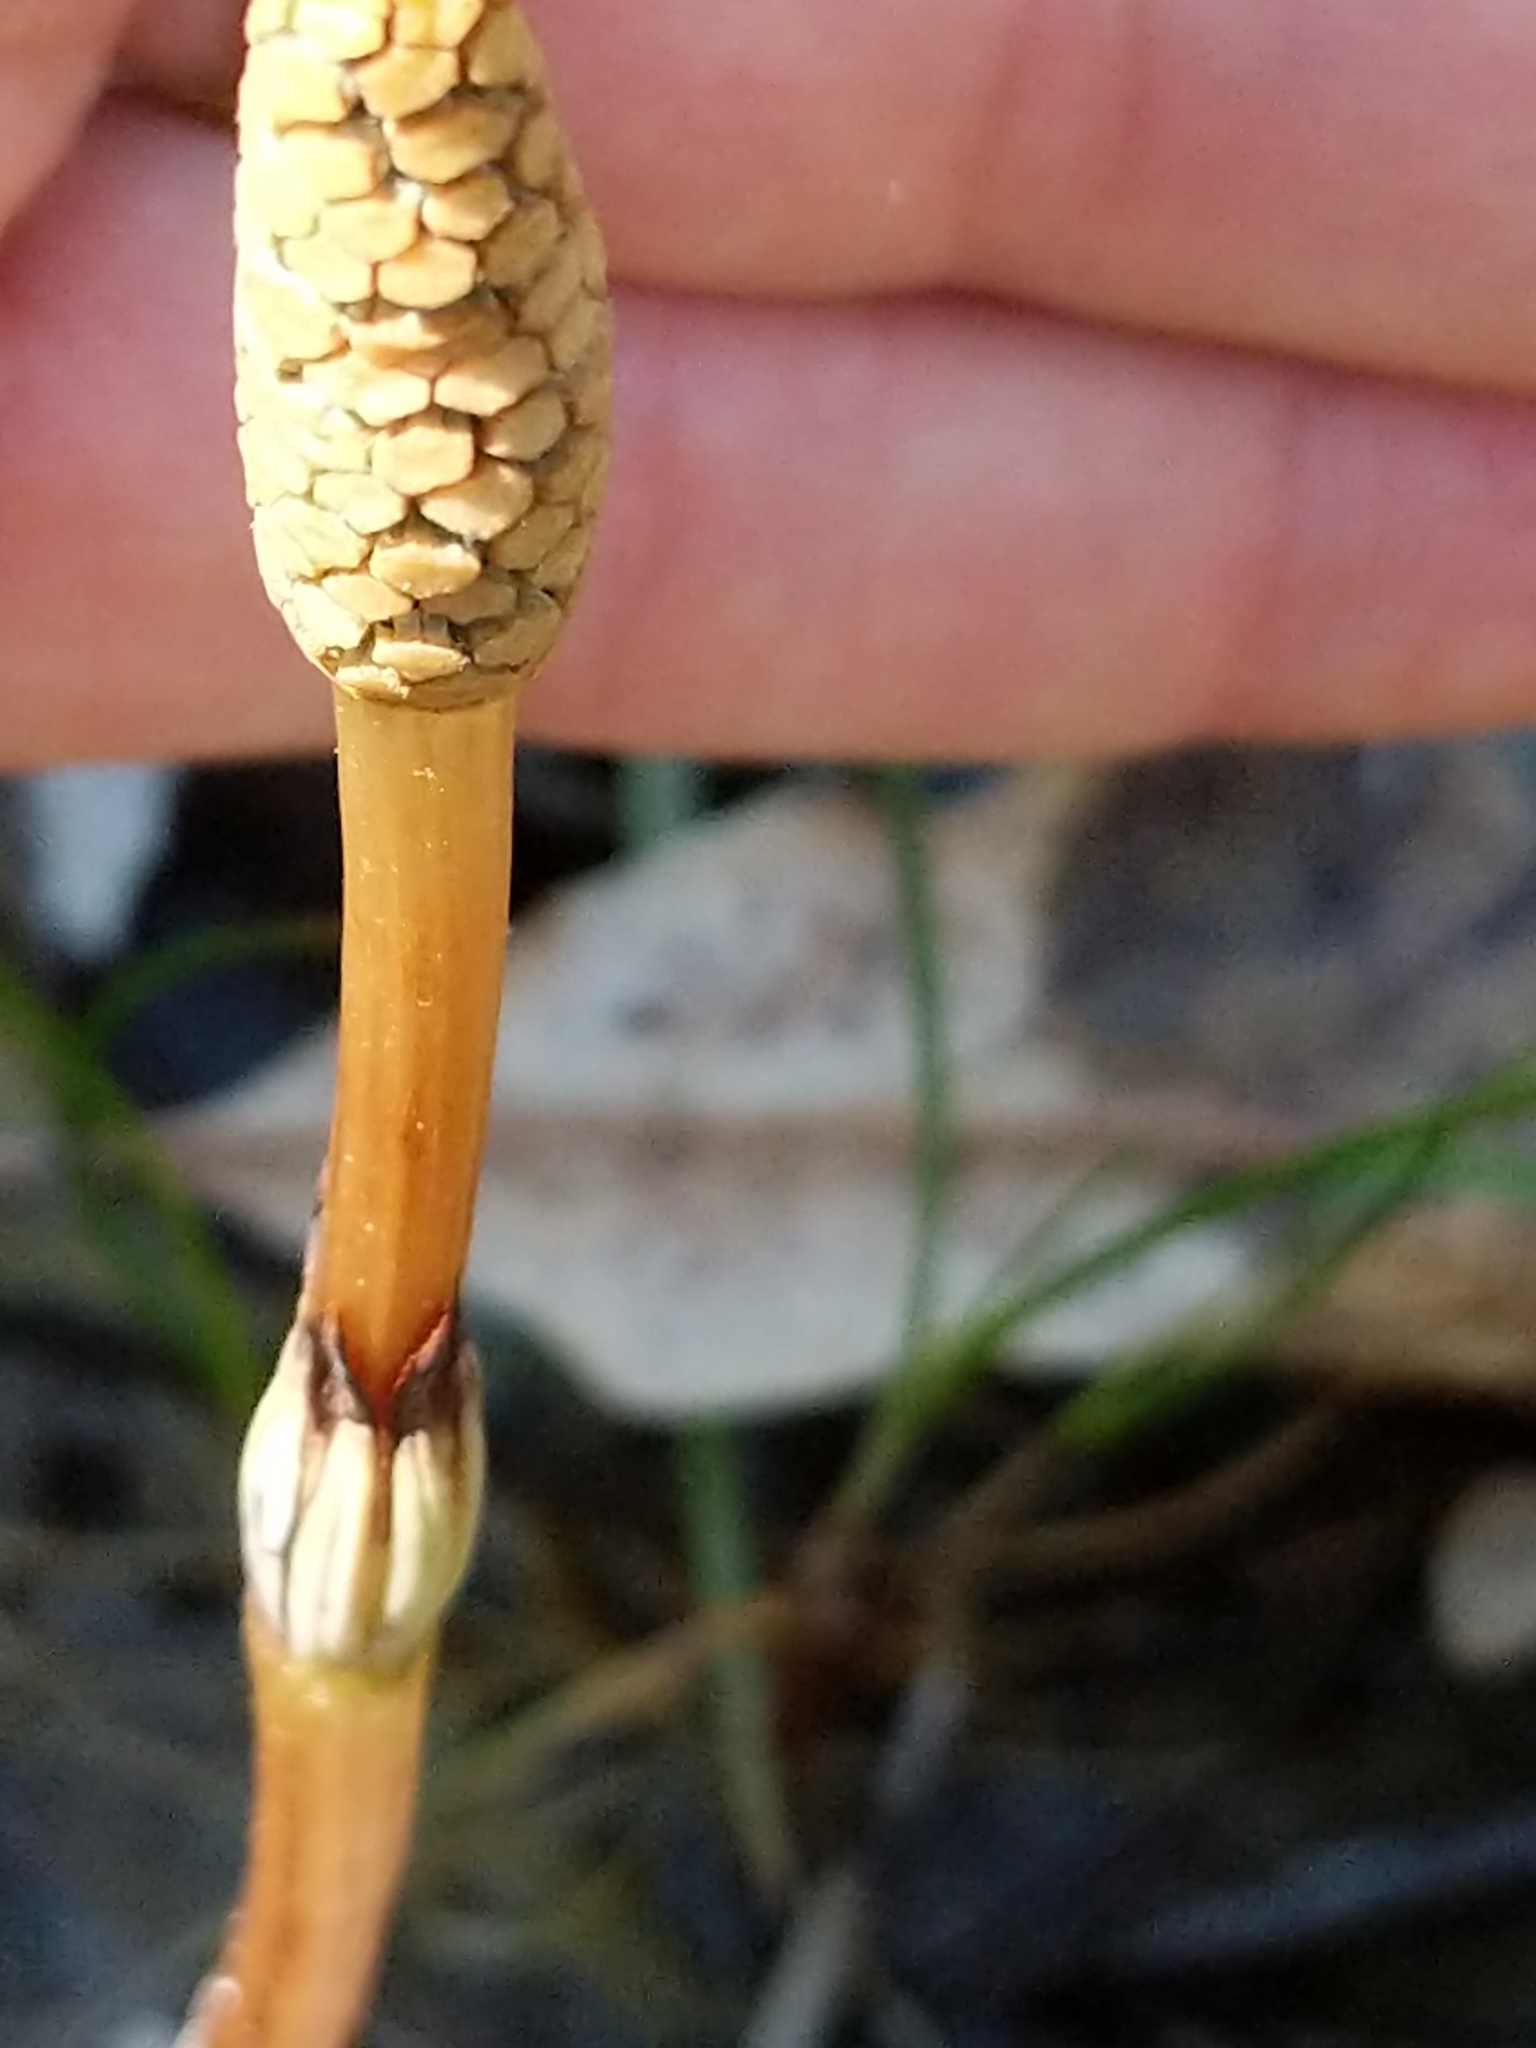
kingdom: Plantae
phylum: Tracheophyta
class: Polypodiopsida
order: Equisetales
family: Equisetaceae
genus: Equisetum
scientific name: Equisetum arvense
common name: Field horsetail
